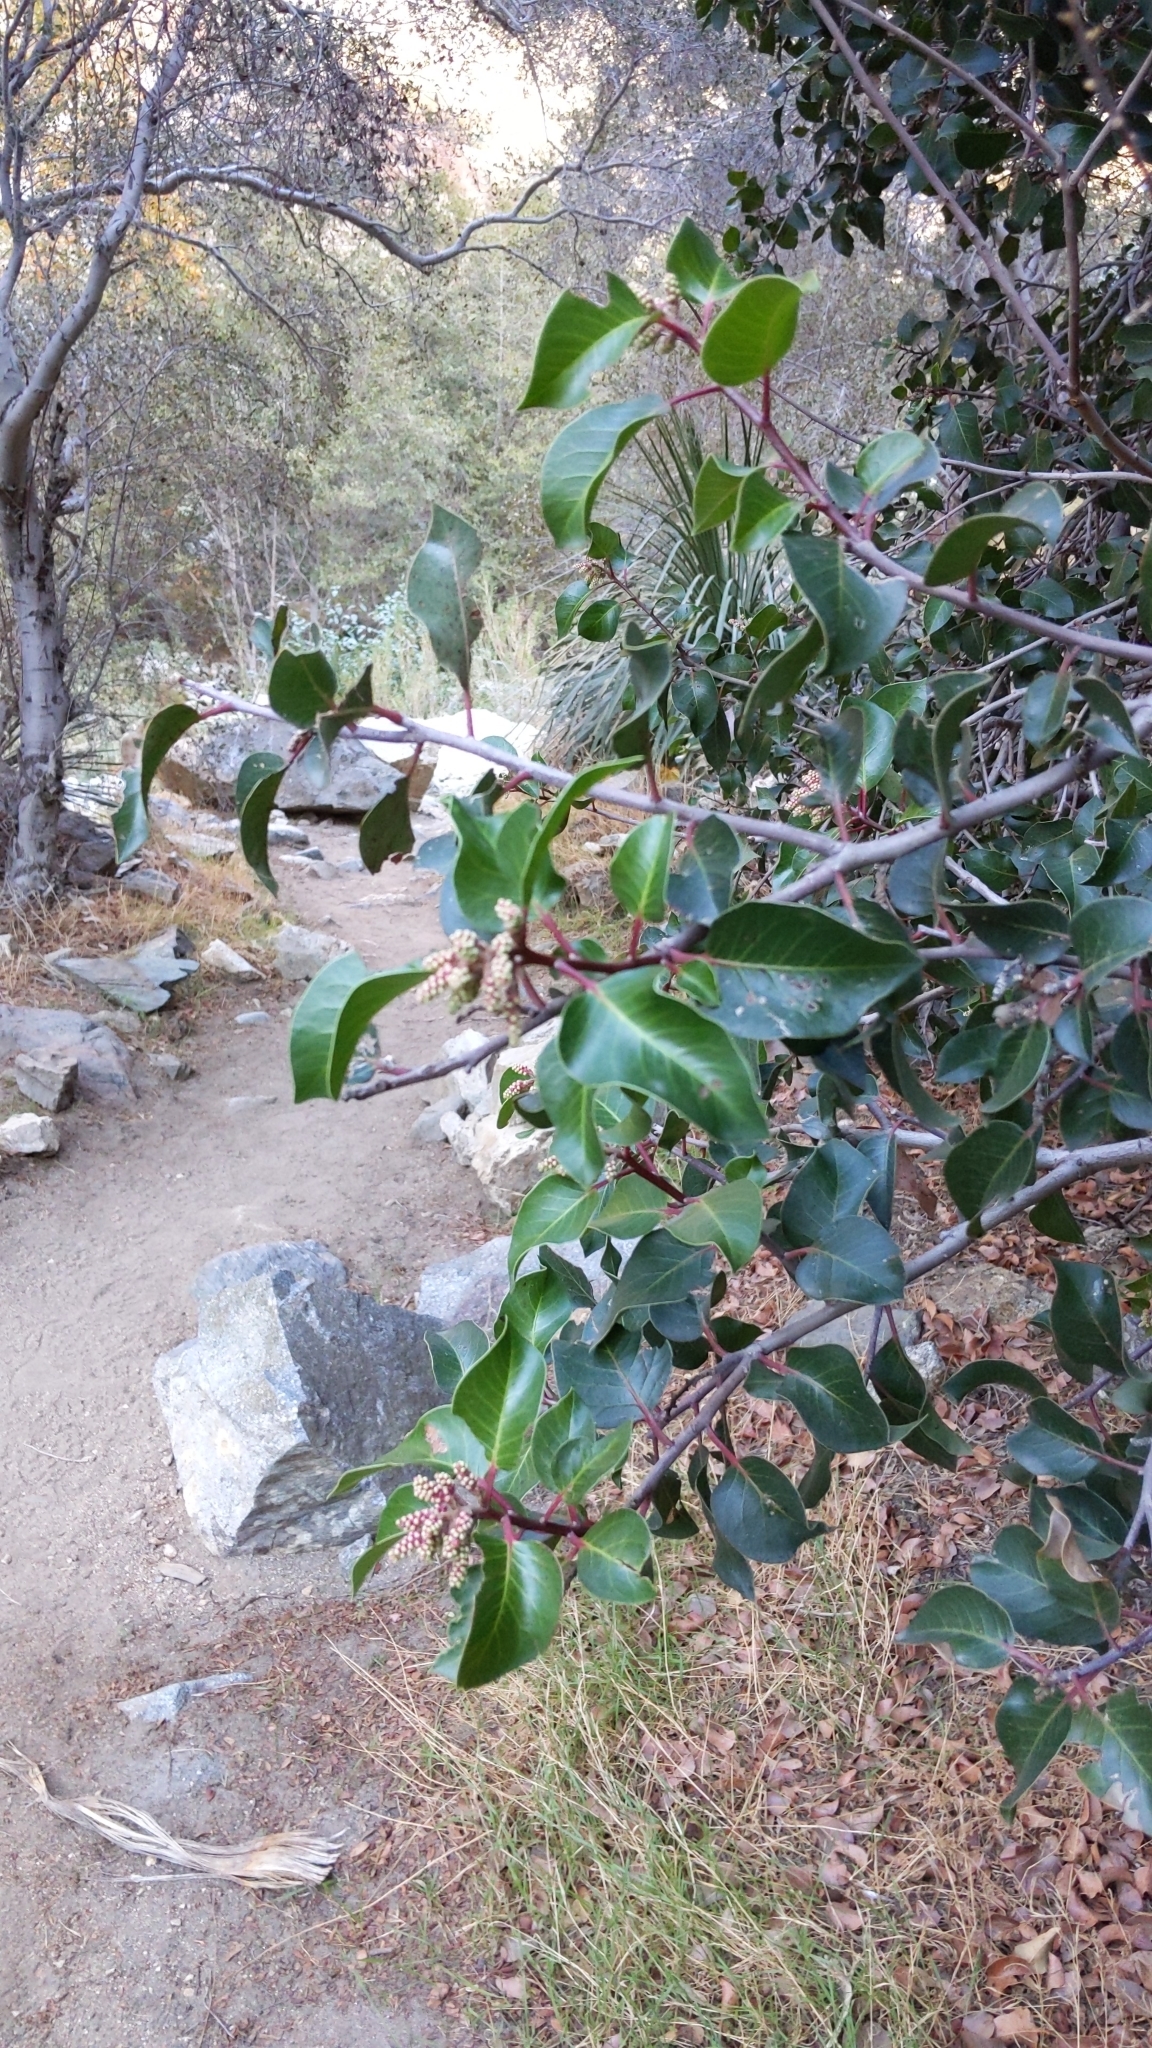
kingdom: Plantae
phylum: Tracheophyta
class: Magnoliopsida
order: Sapindales
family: Anacardiaceae
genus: Rhus
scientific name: Rhus ovata
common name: Sugar sumac
